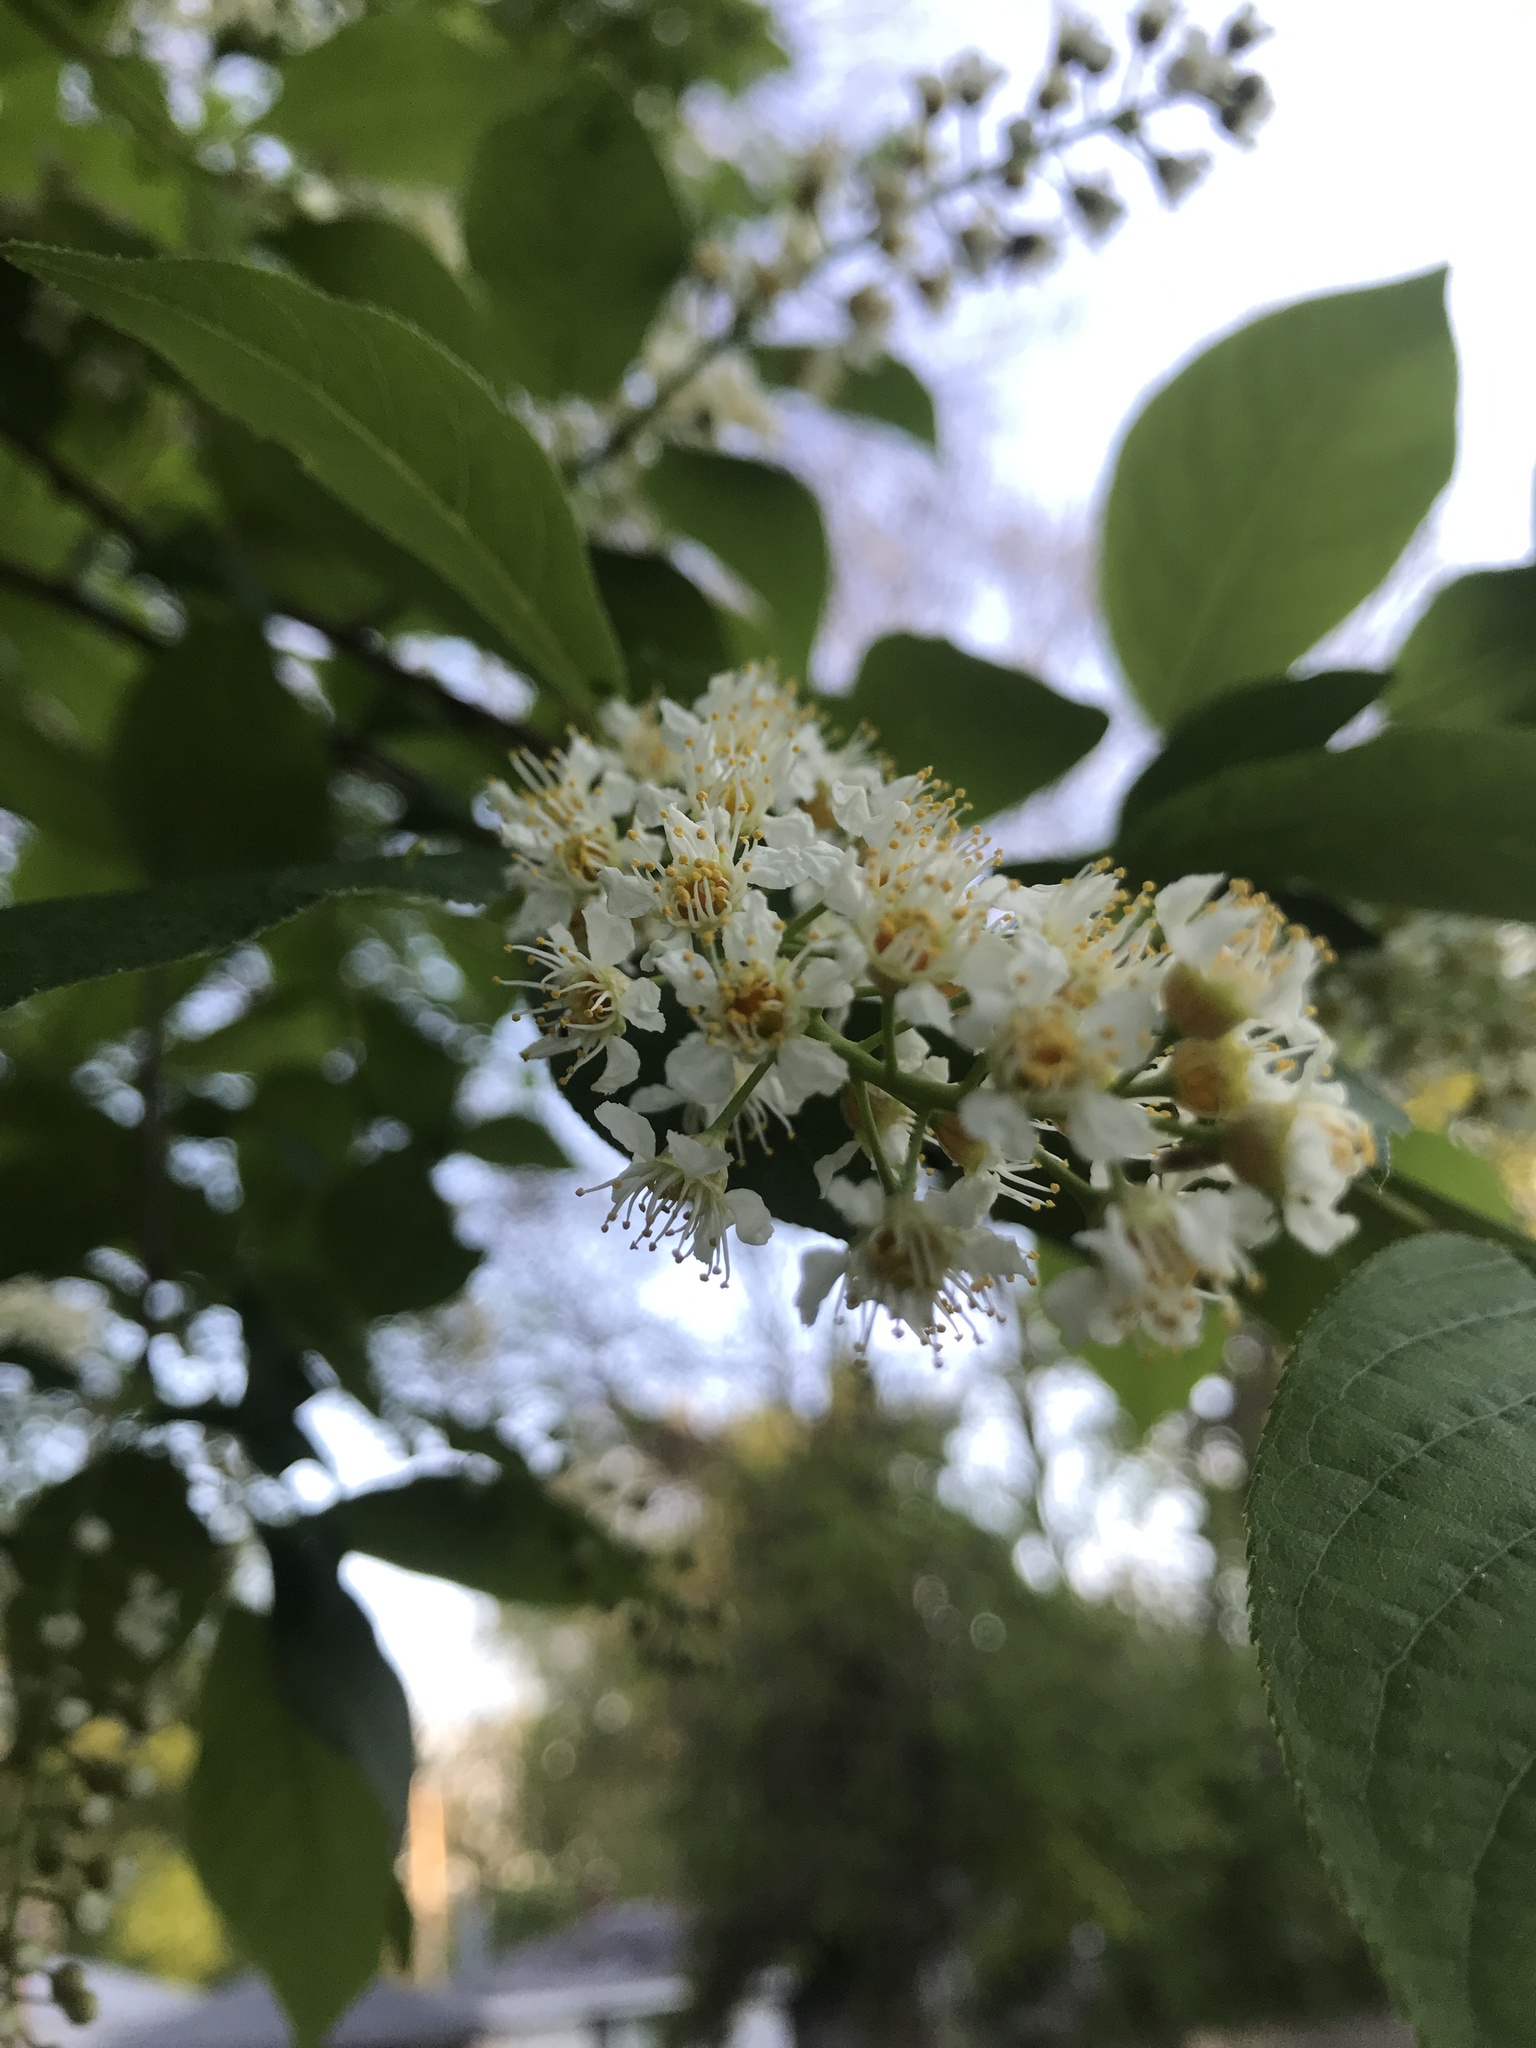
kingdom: Plantae
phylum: Tracheophyta
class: Magnoliopsida
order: Rosales
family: Rosaceae
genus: Prunus
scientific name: Prunus virginiana
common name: Chokecherry
